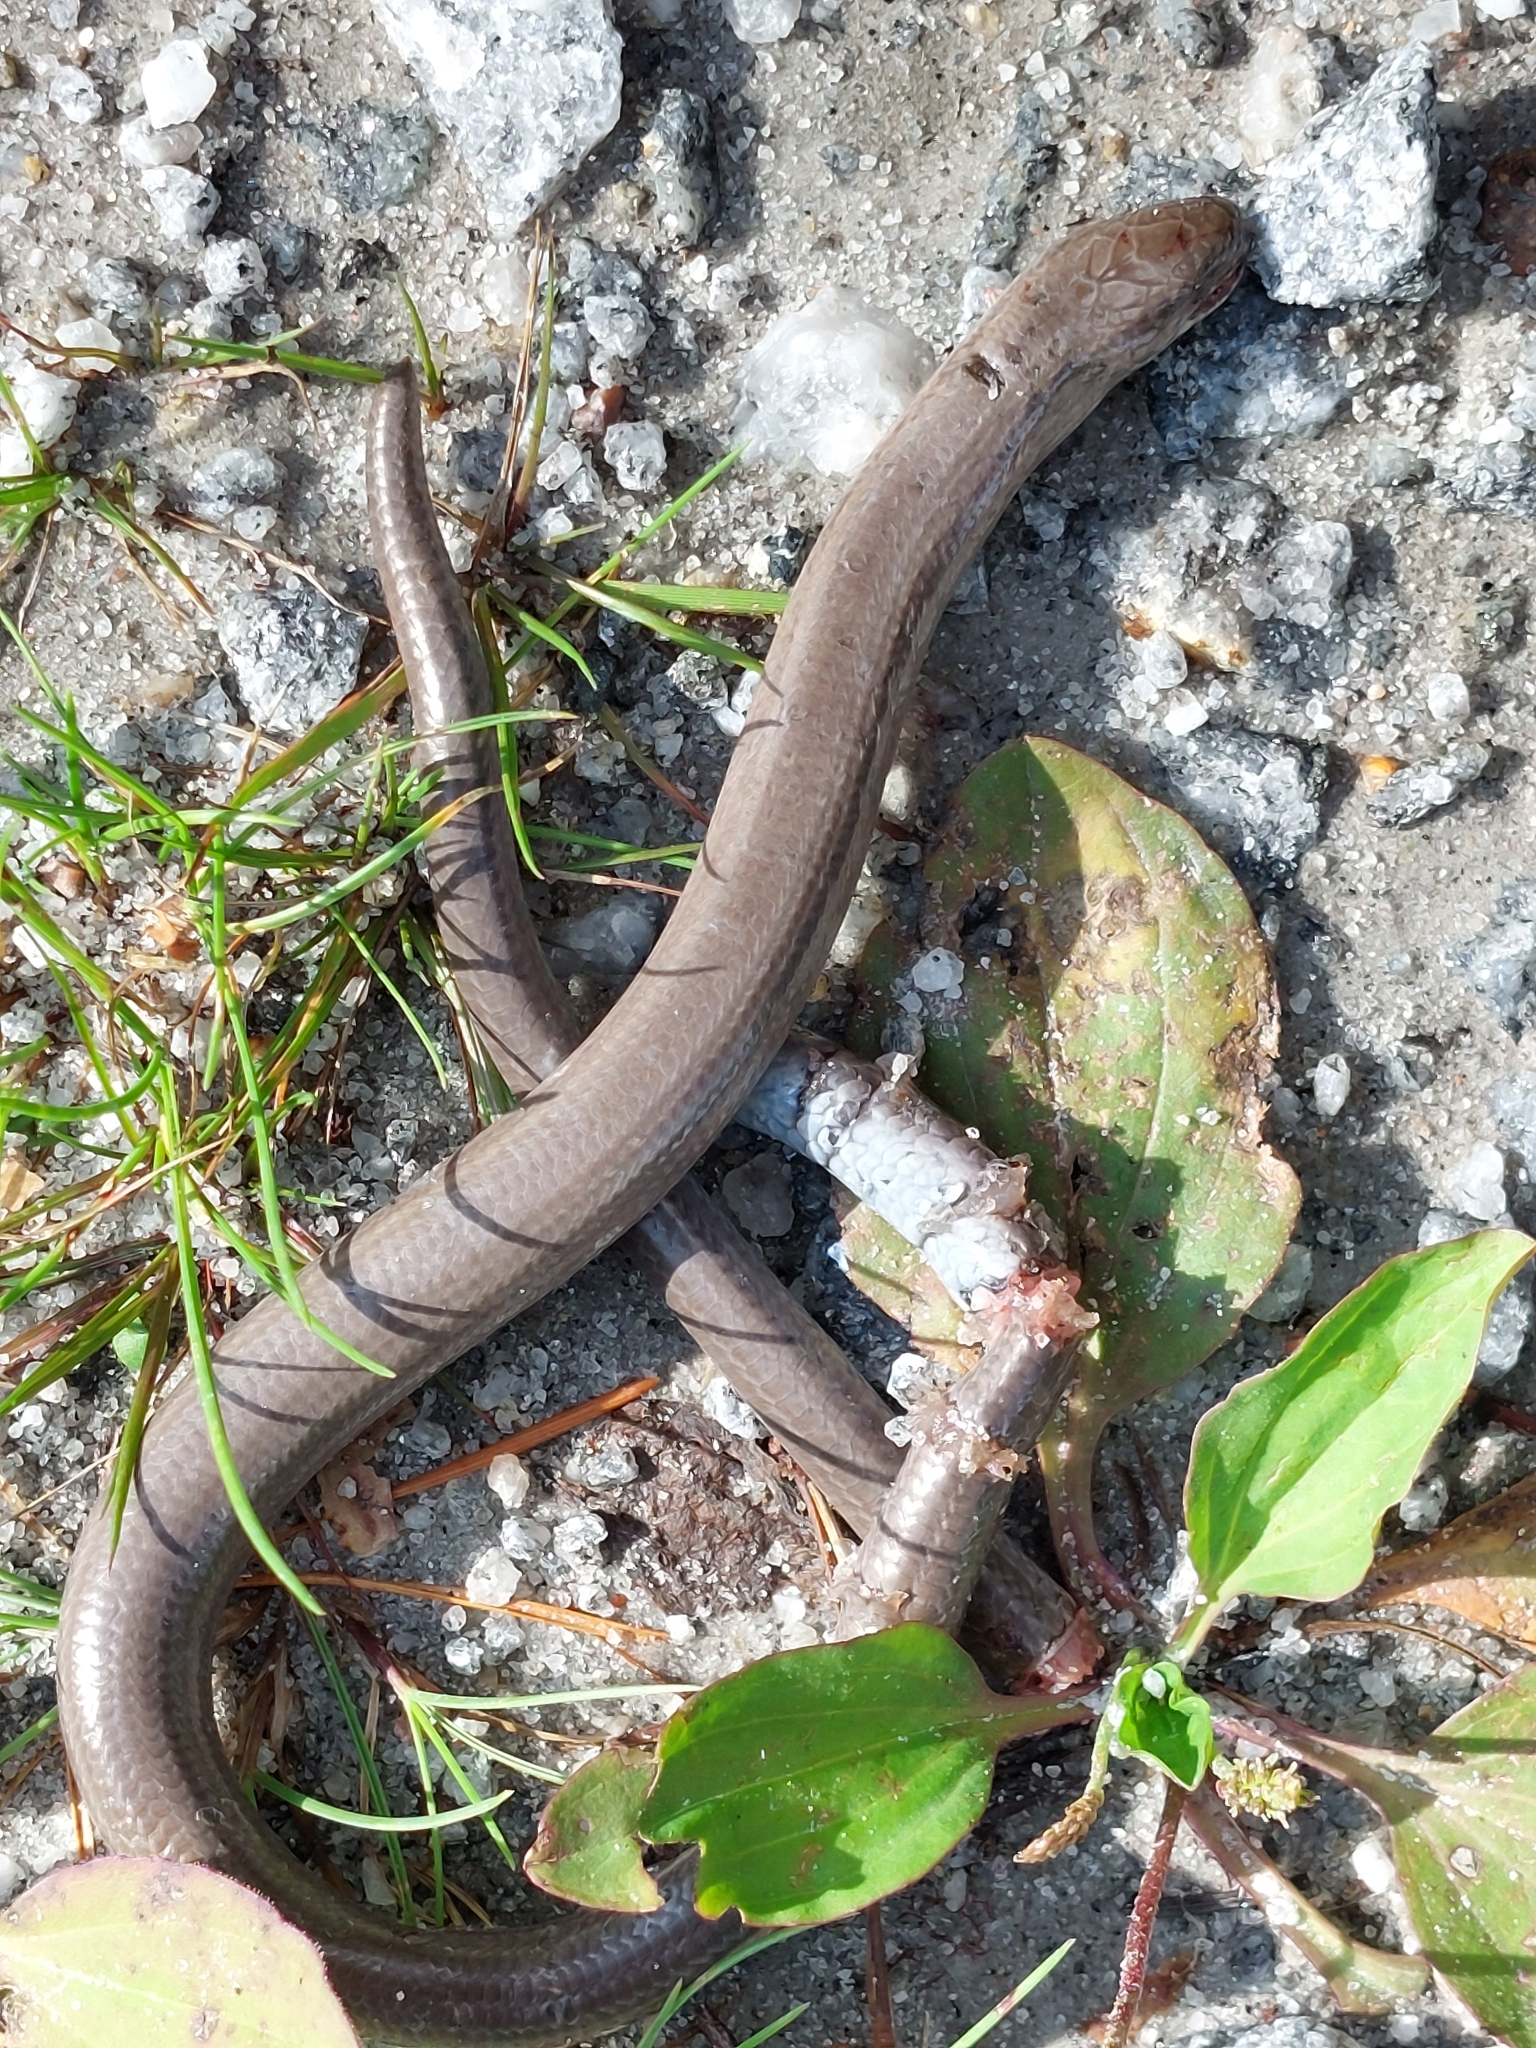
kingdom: Animalia
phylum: Chordata
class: Squamata
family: Anguidae
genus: Anguis
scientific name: Anguis fragilis
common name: Slow worm
